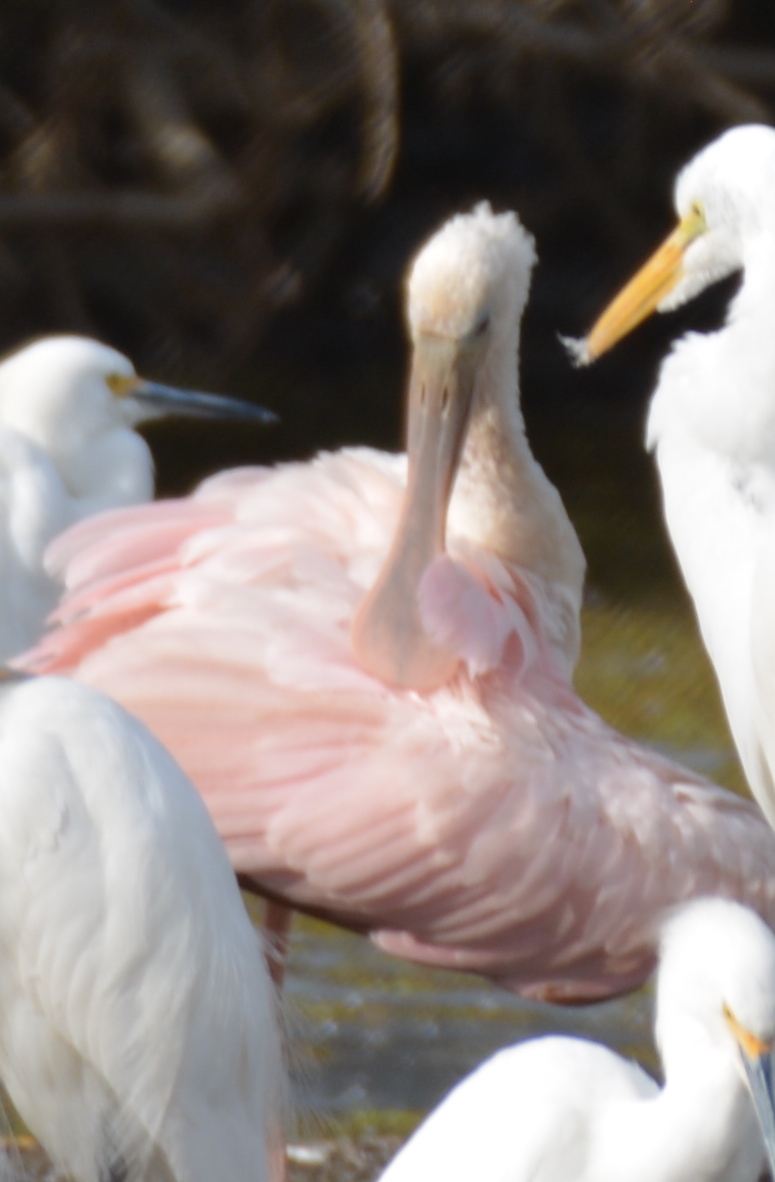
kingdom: Animalia
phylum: Chordata
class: Aves
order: Pelecaniformes
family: Threskiornithidae
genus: Platalea
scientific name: Platalea ajaja
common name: Roseate spoonbill
